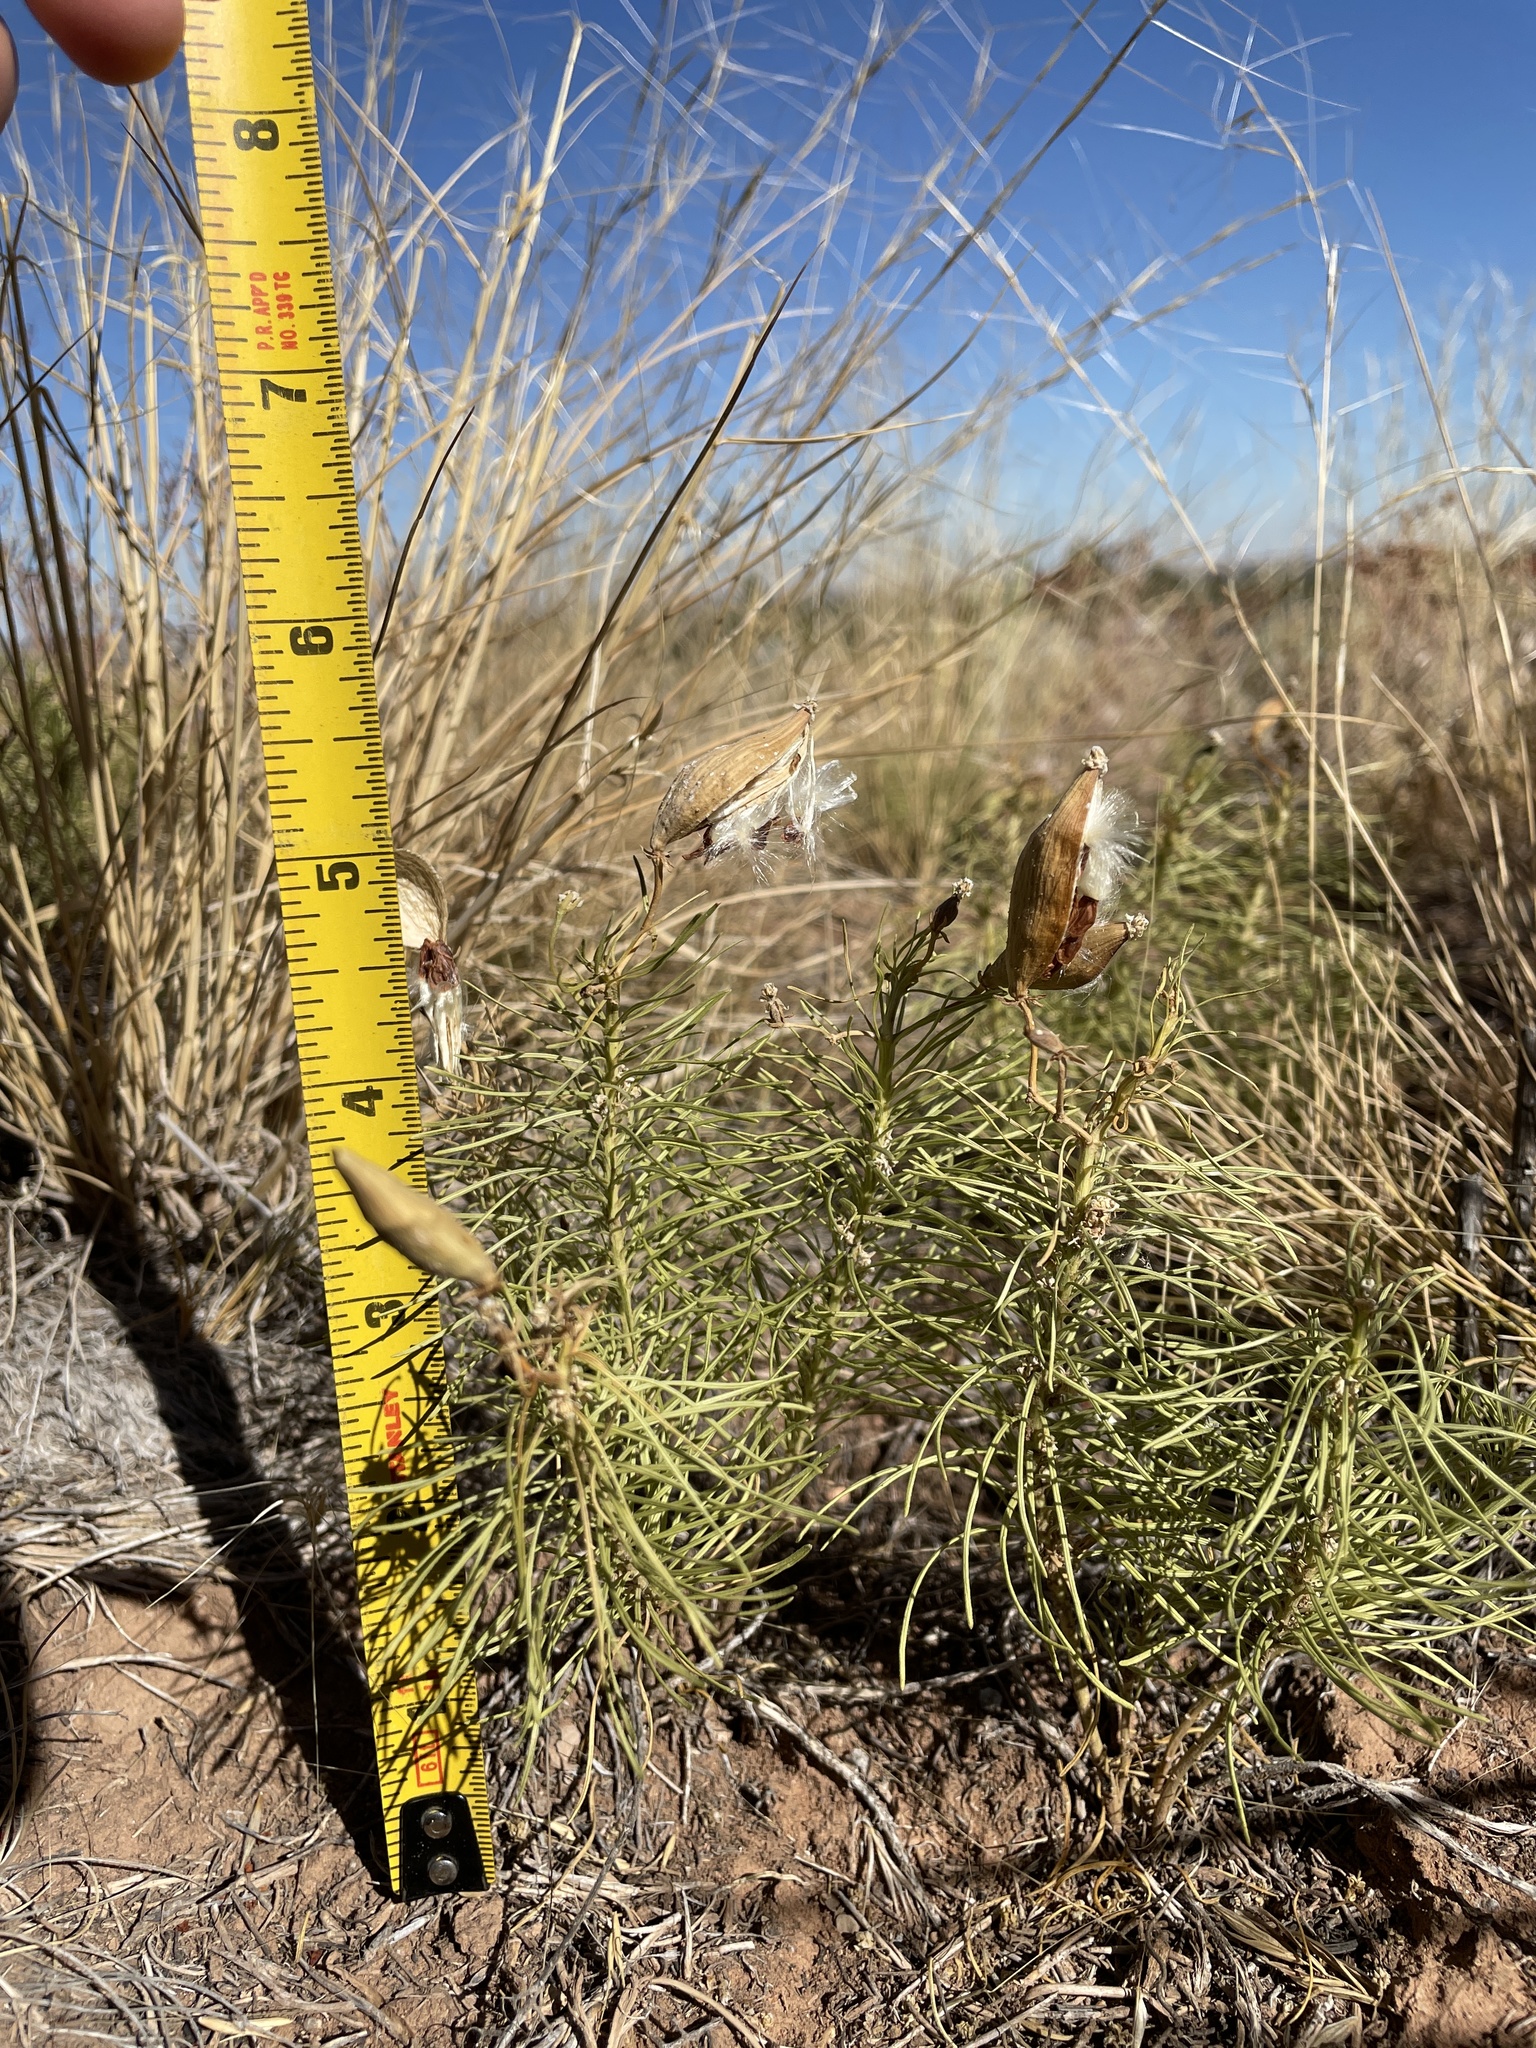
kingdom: Plantae
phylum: Tracheophyta
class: Magnoliopsida
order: Gentianales
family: Apocynaceae
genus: Asclepias
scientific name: Asclepias pumila
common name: Dwarf milkweed
